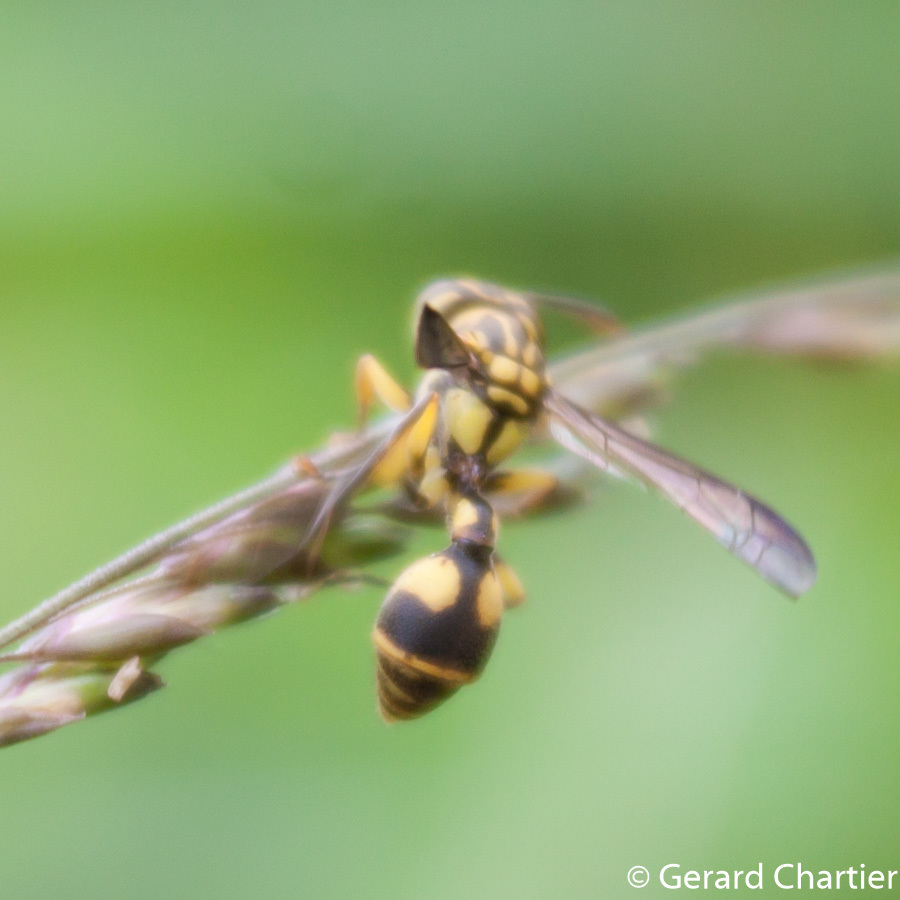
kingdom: Animalia
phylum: Arthropoda
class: Insecta
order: Hymenoptera
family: Vespidae
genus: Ropalidia
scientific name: Ropalidia ornaticeps
